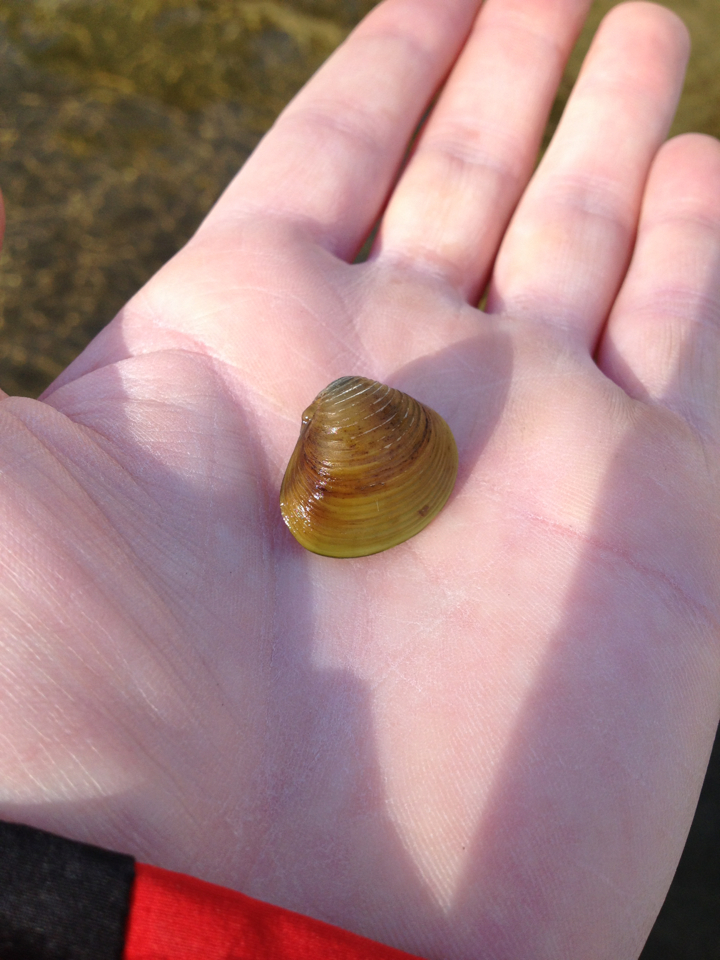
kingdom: Animalia
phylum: Mollusca
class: Bivalvia
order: Venerida
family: Cyrenidae
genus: Corbicula
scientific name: Corbicula fluminea
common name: Asian clam
